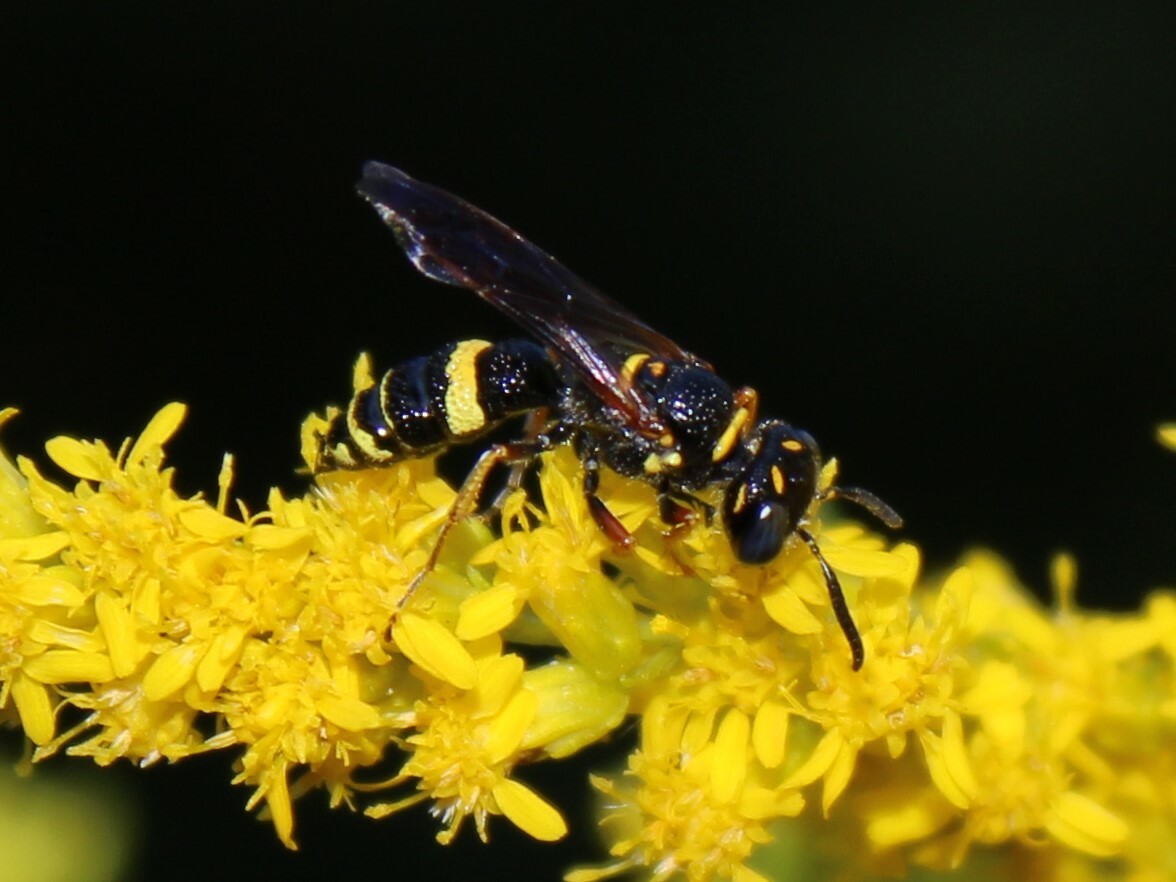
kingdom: Animalia
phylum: Arthropoda
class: Insecta
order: Hymenoptera
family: Crabronidae
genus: Philanthus
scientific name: Philanthus gibbosus
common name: Humped beewolf
